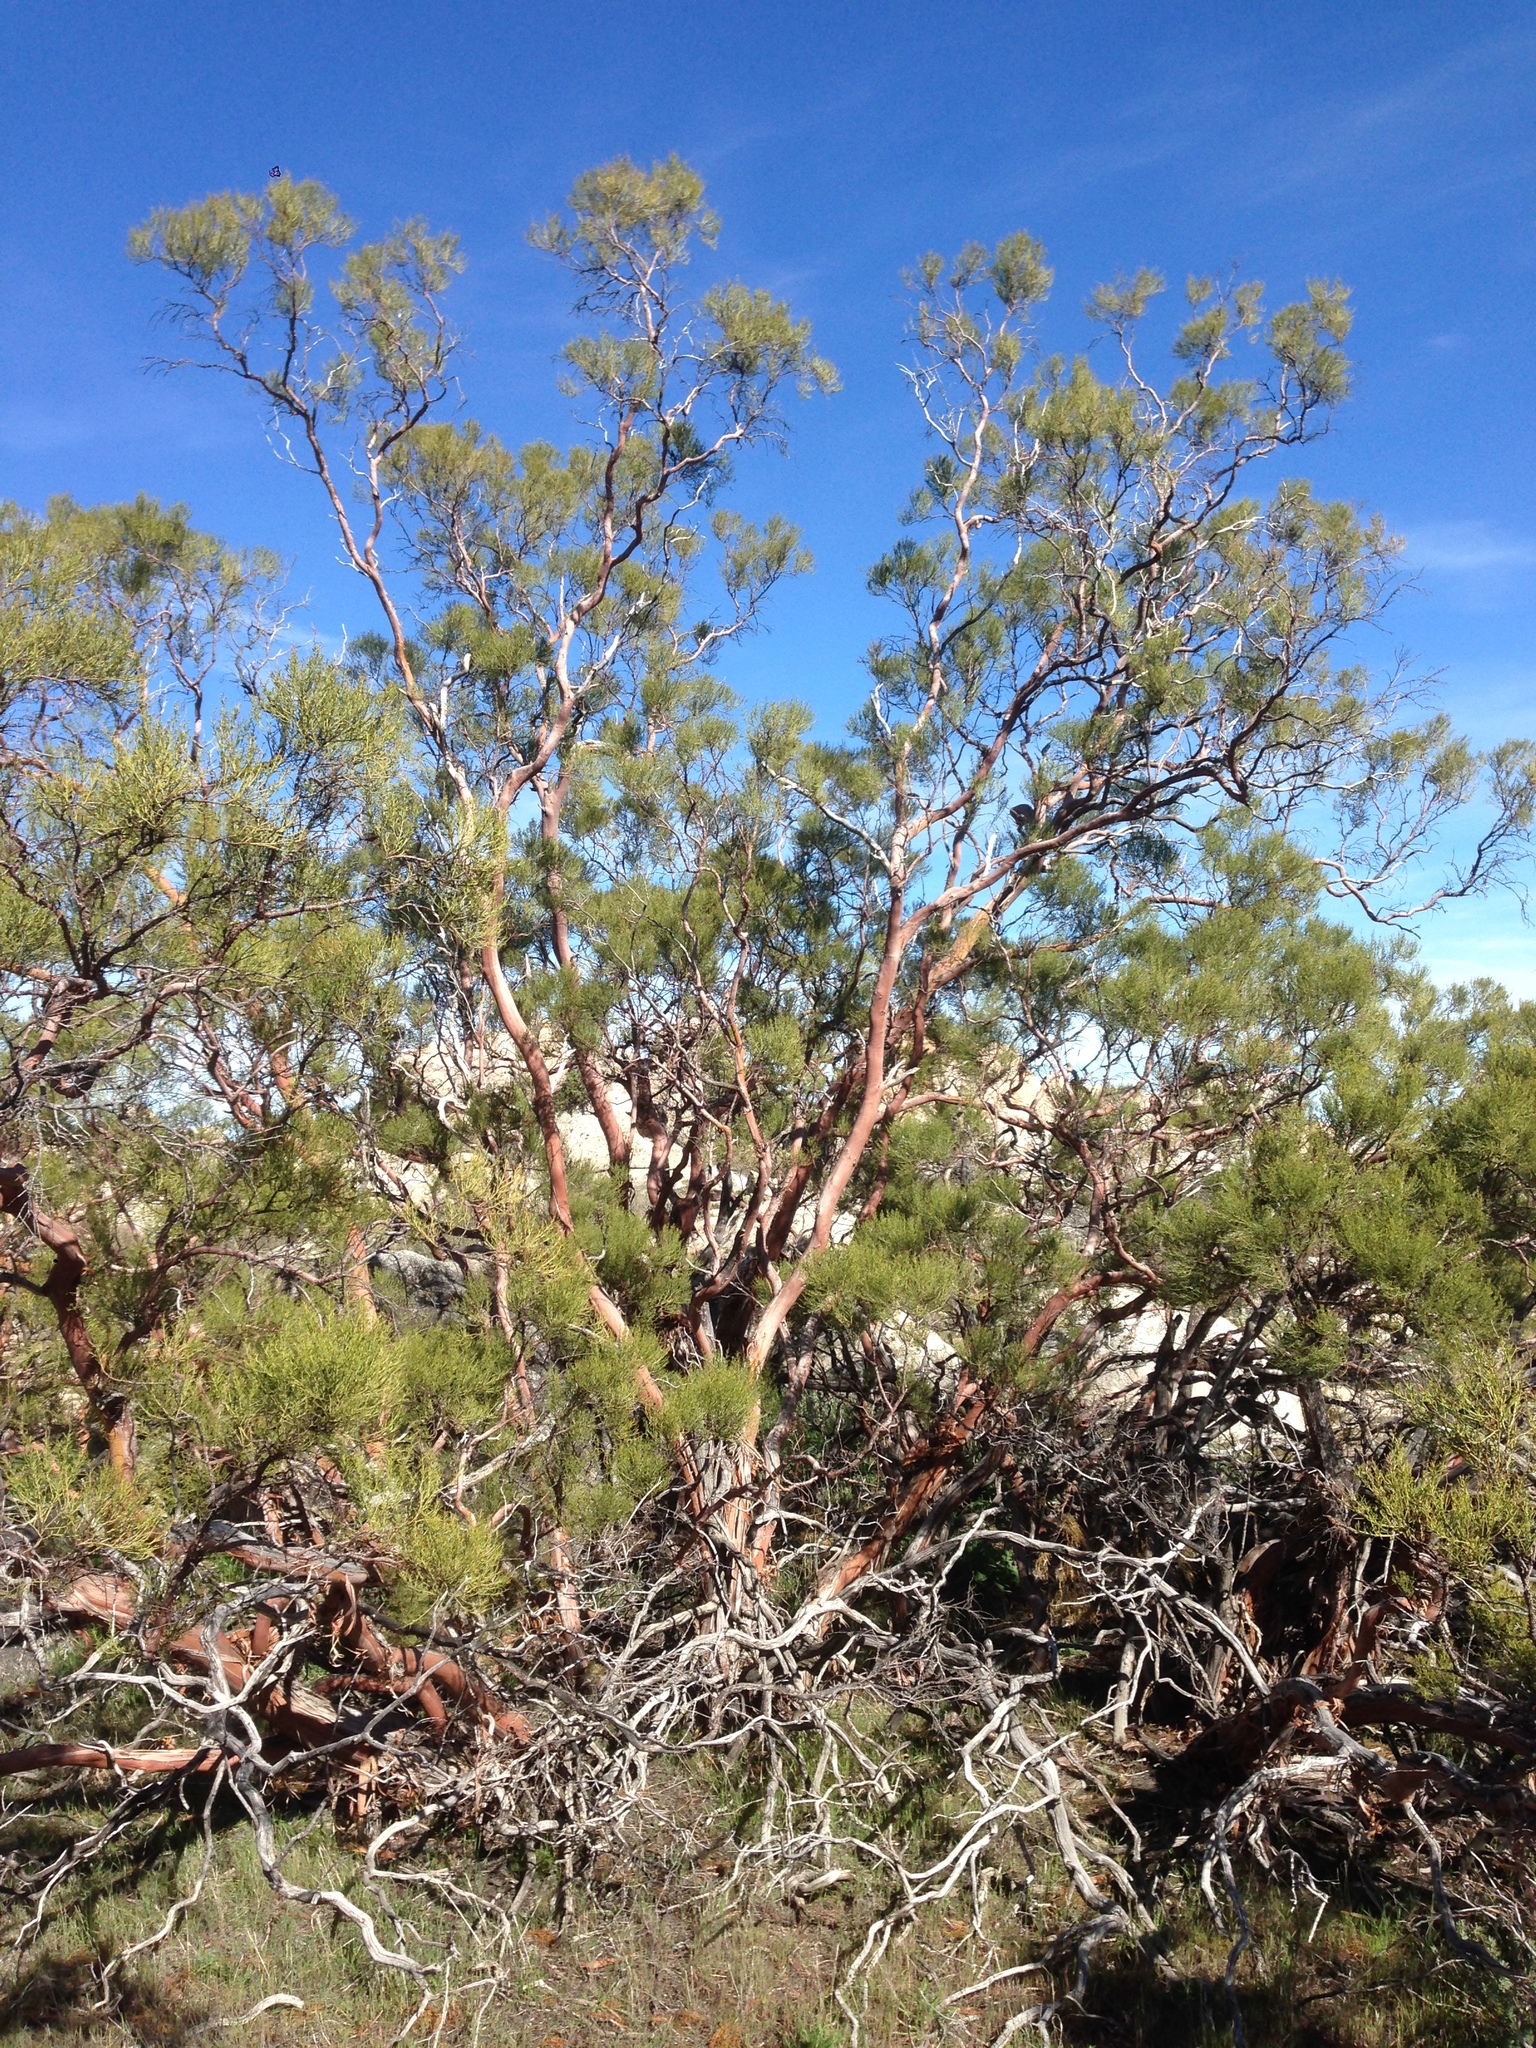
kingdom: Plantae
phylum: Tracheophyta
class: Magnoliopsida
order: Rosales
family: Rosaceae
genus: Adenostoma
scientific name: Adenostoma sparsifolium
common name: Red shank
